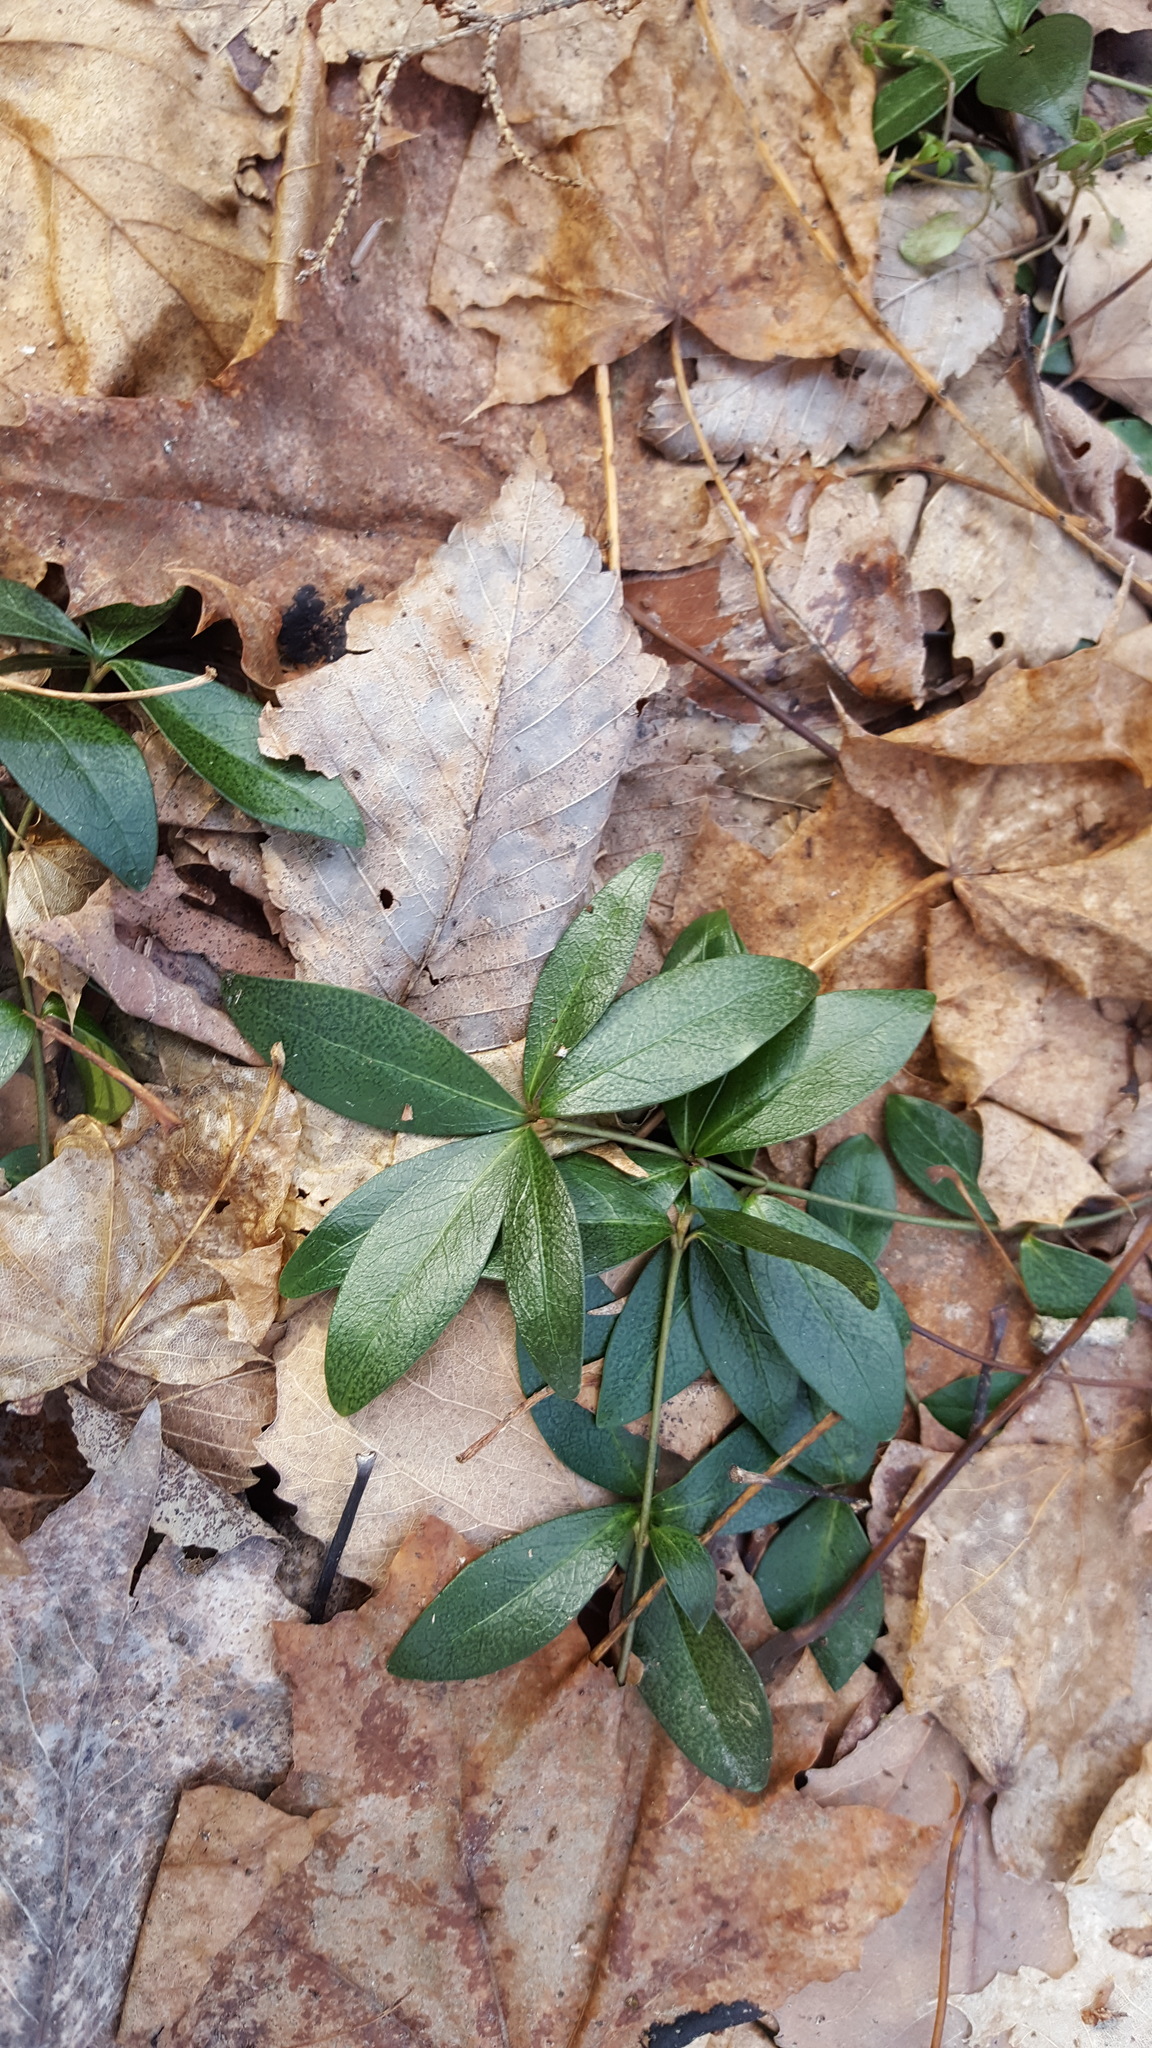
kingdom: Plantae
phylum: Tracheophyta
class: Magnoliopsida
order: Gentianales
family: Apocynaceae
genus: Vinca
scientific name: Vinca minor
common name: Lesser periwinkle
